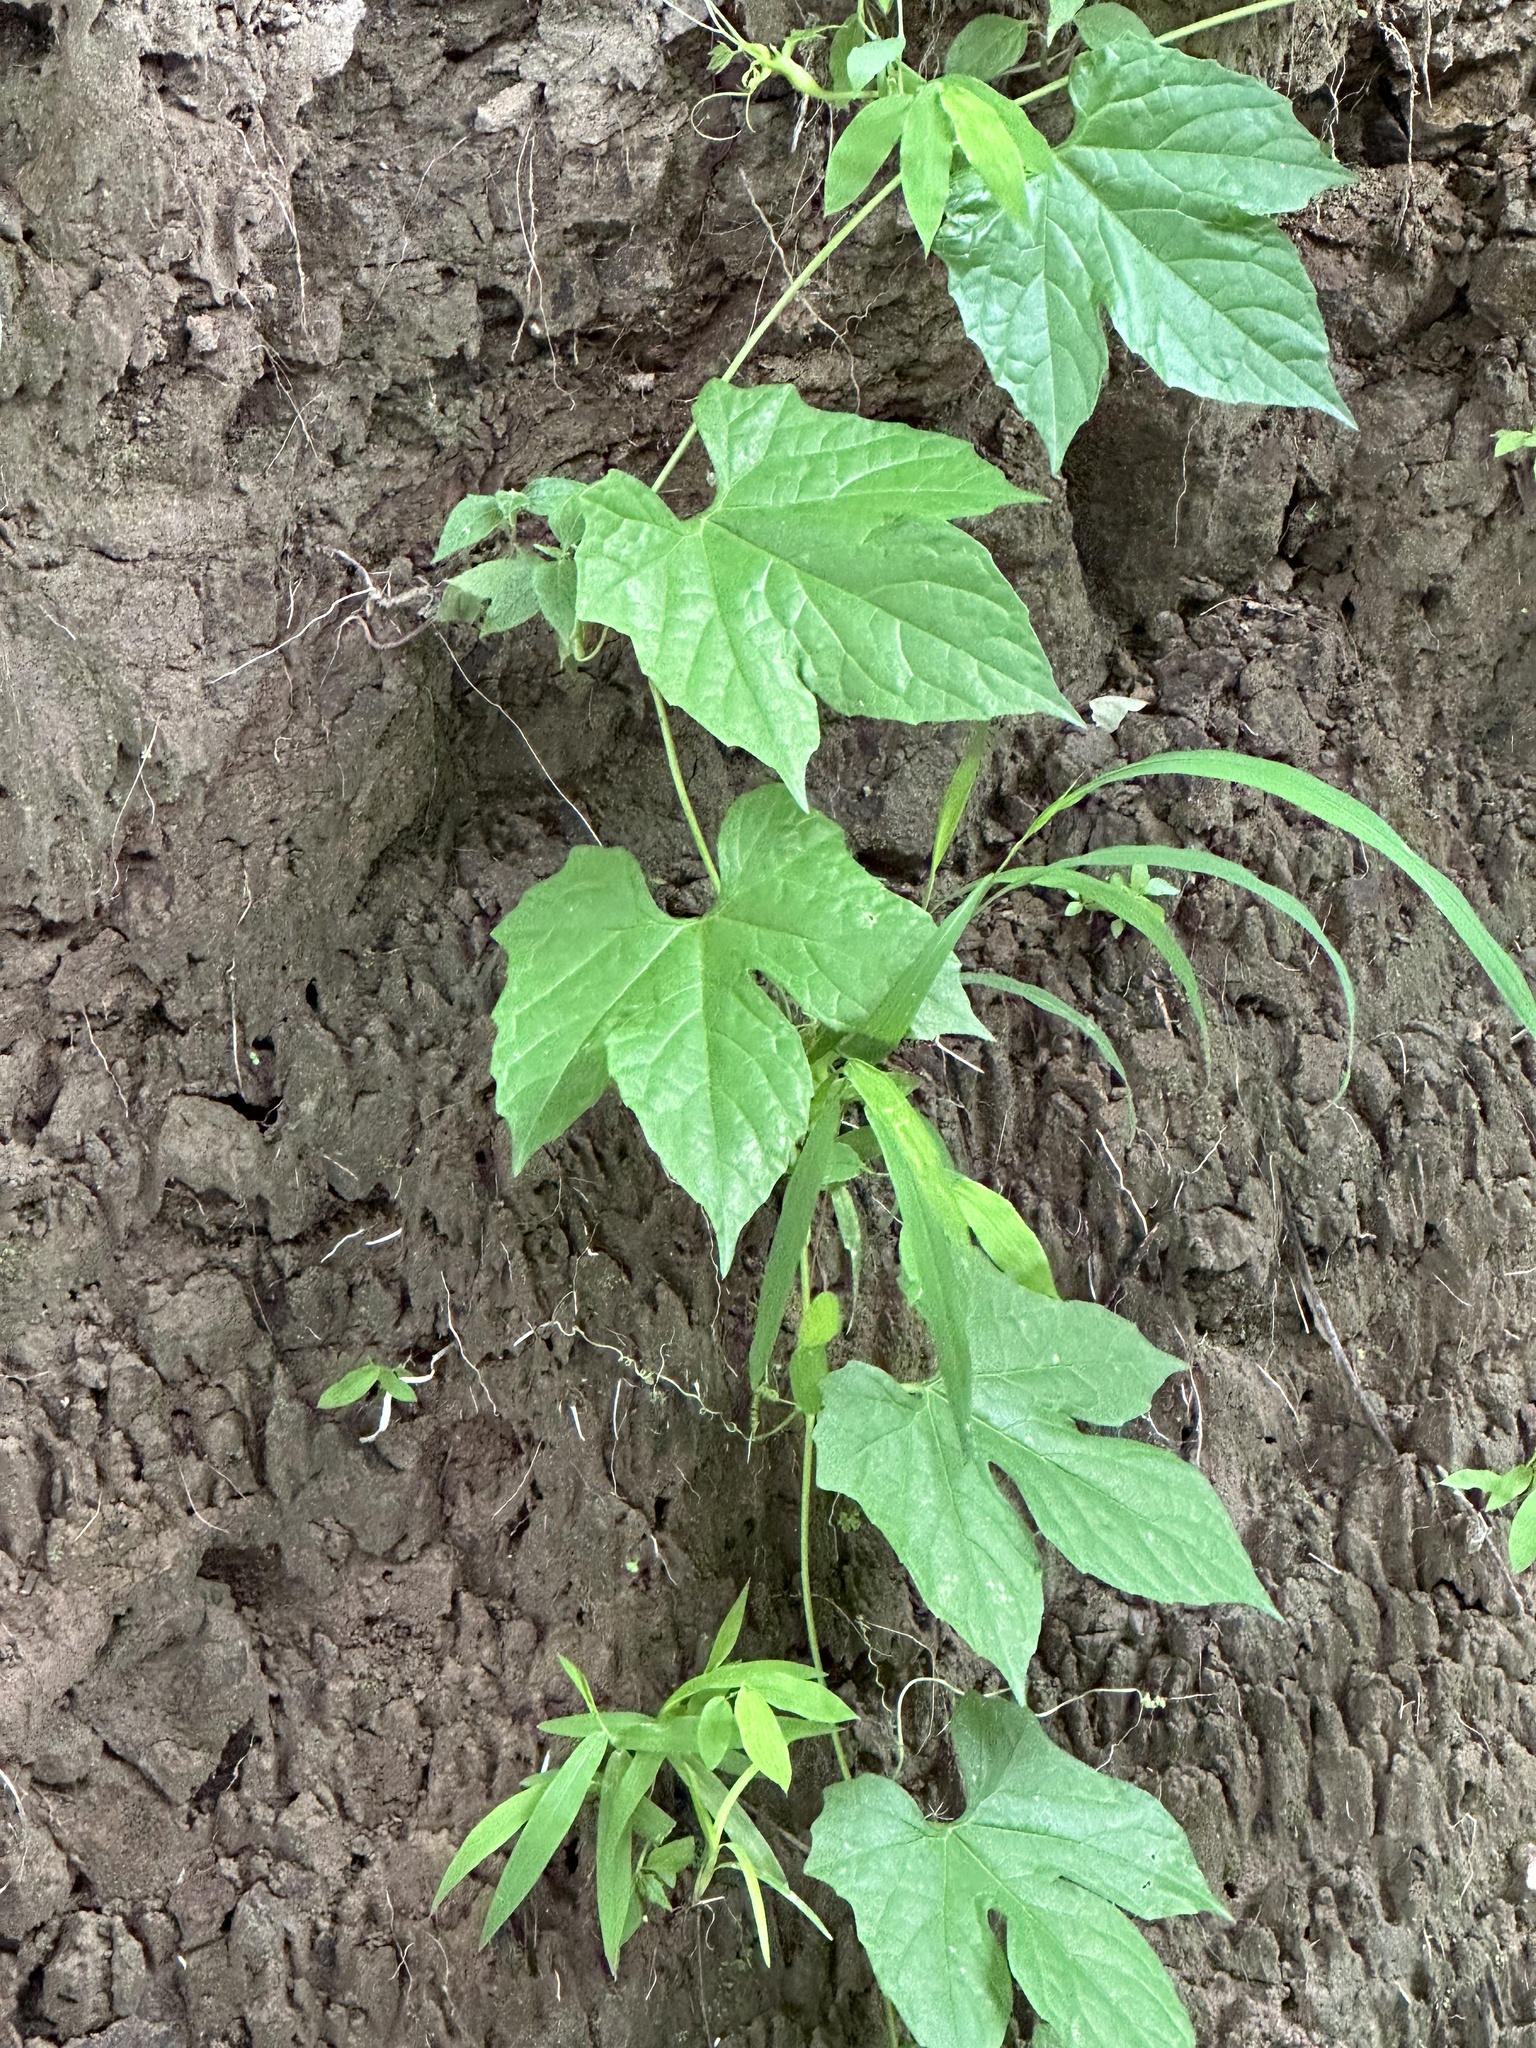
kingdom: Plantae
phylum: Tracheophyta
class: Magnoliopsida
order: Cucurbitales
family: Cucurbitaceae
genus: Diplocyclos
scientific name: Diplocyclos palmatus
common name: Striped-cucumber
